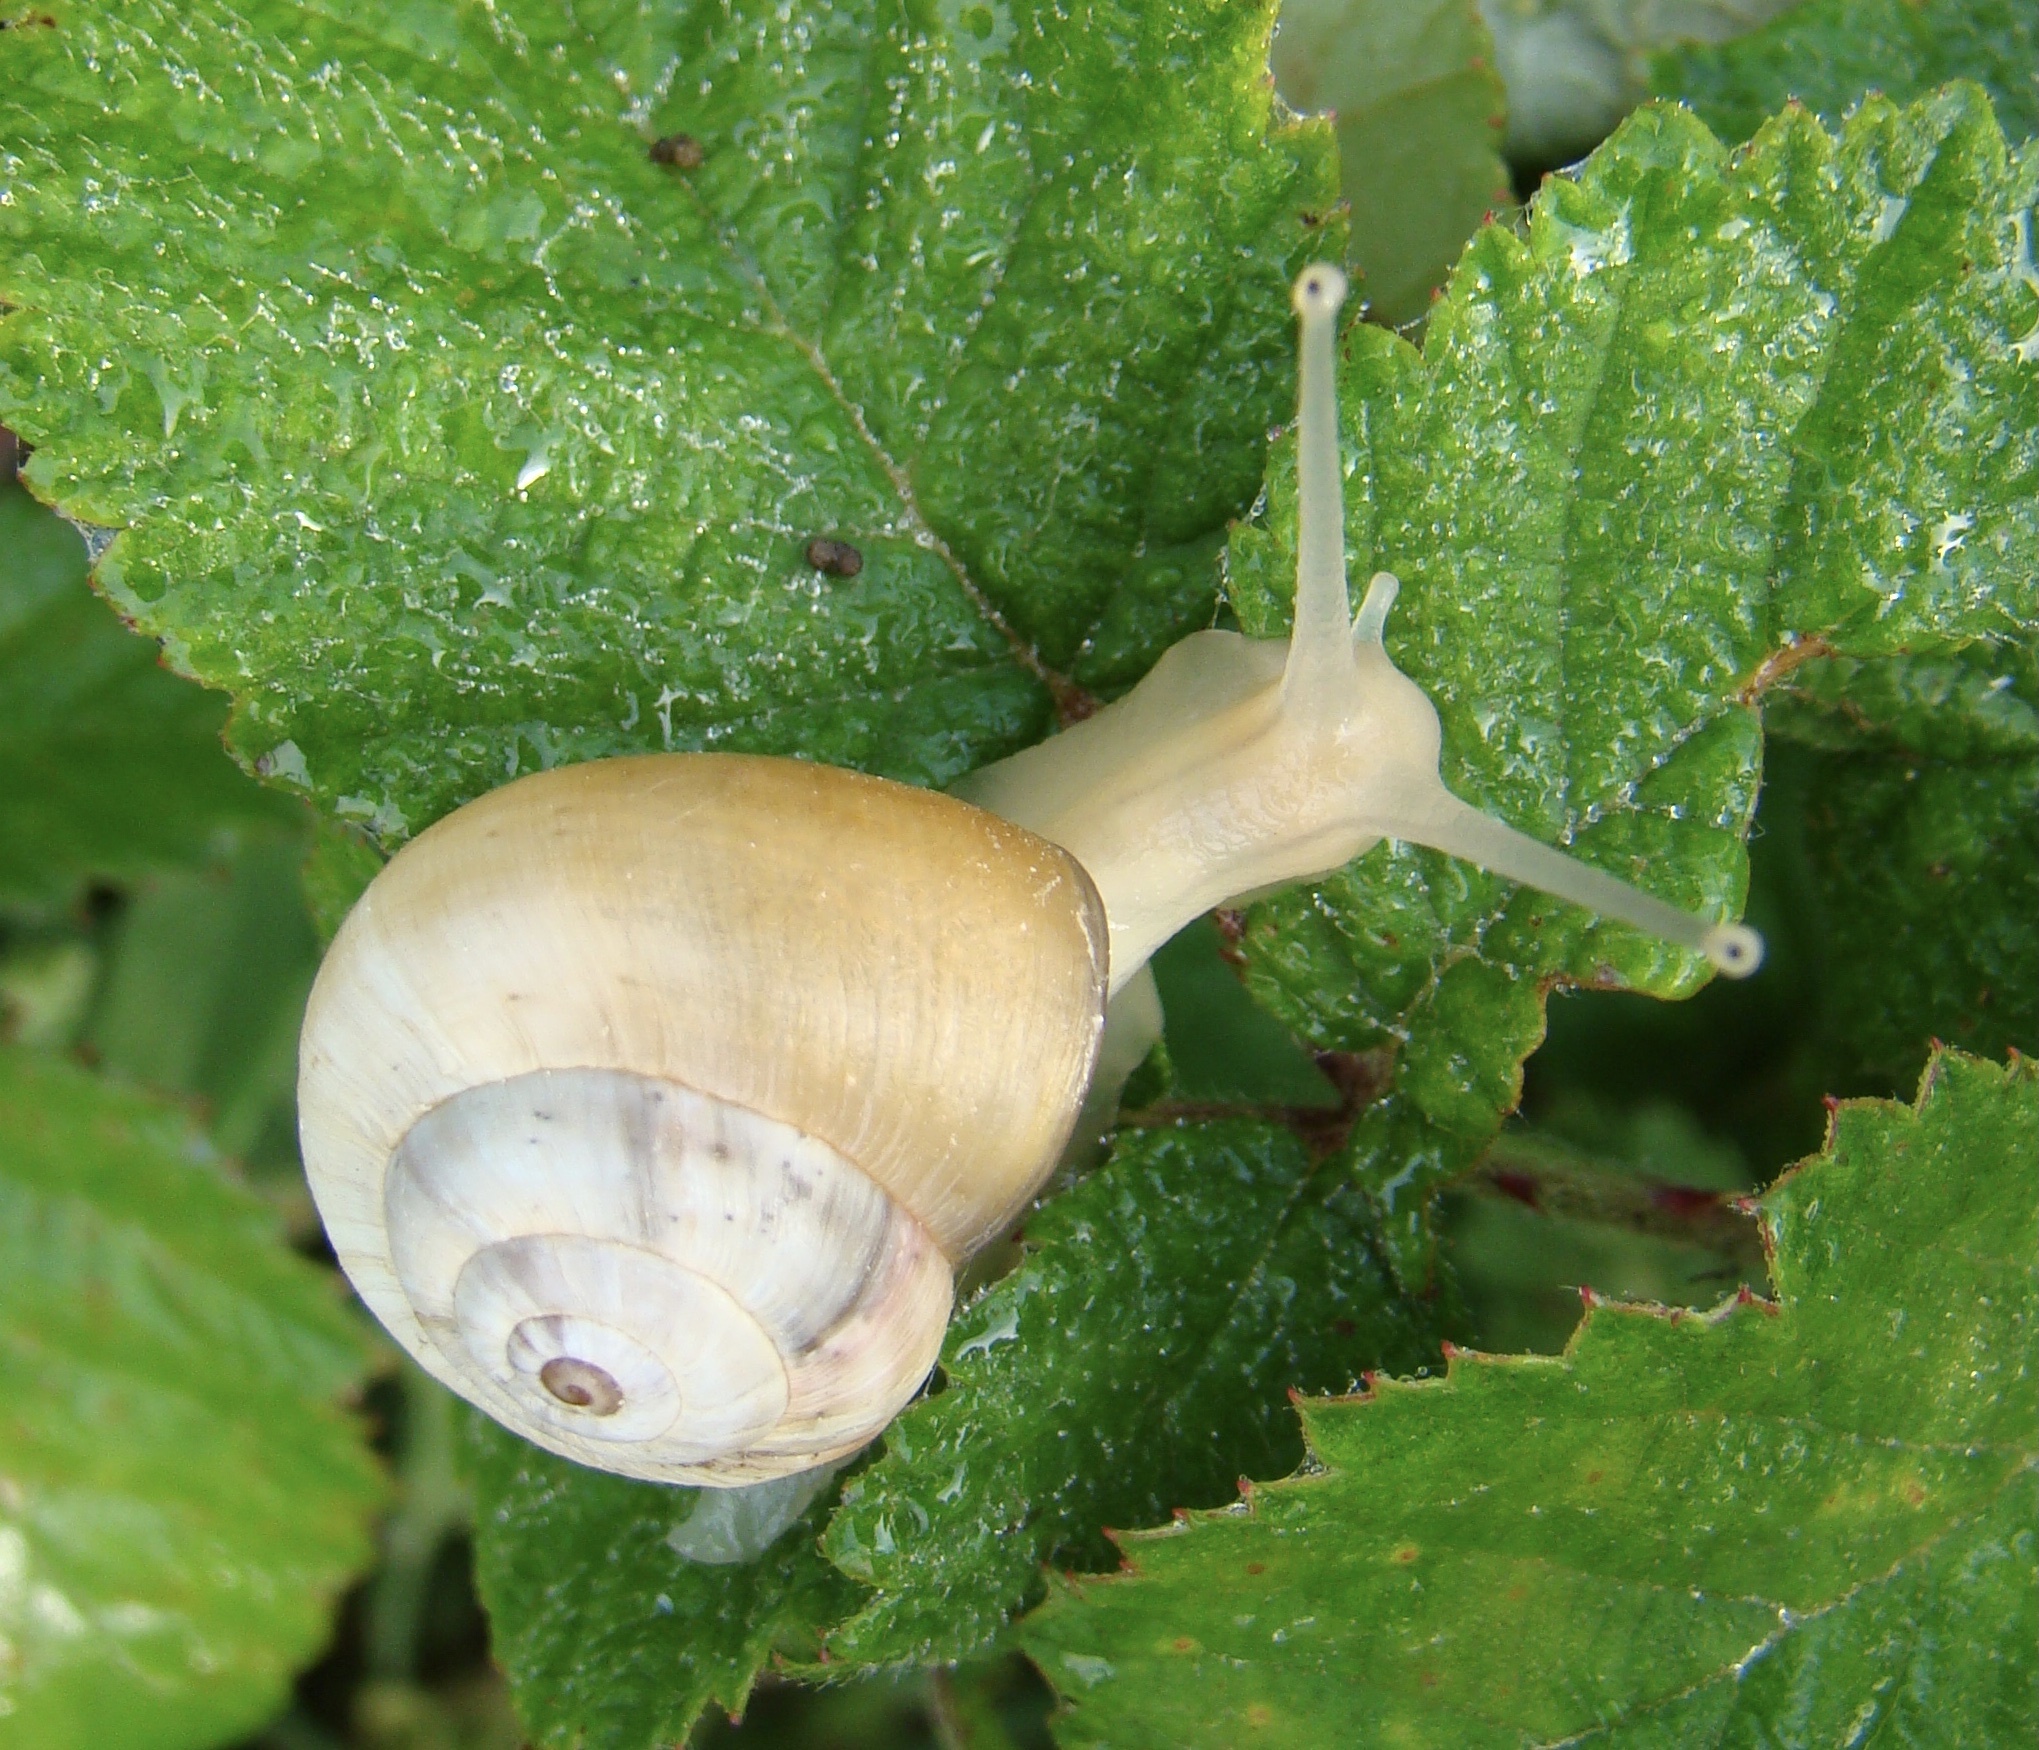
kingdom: Animalia
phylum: Mollusca
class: Gastropoda
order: Stylommatophora
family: Helicidae
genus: Theba
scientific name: Theba pisana
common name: White snail
